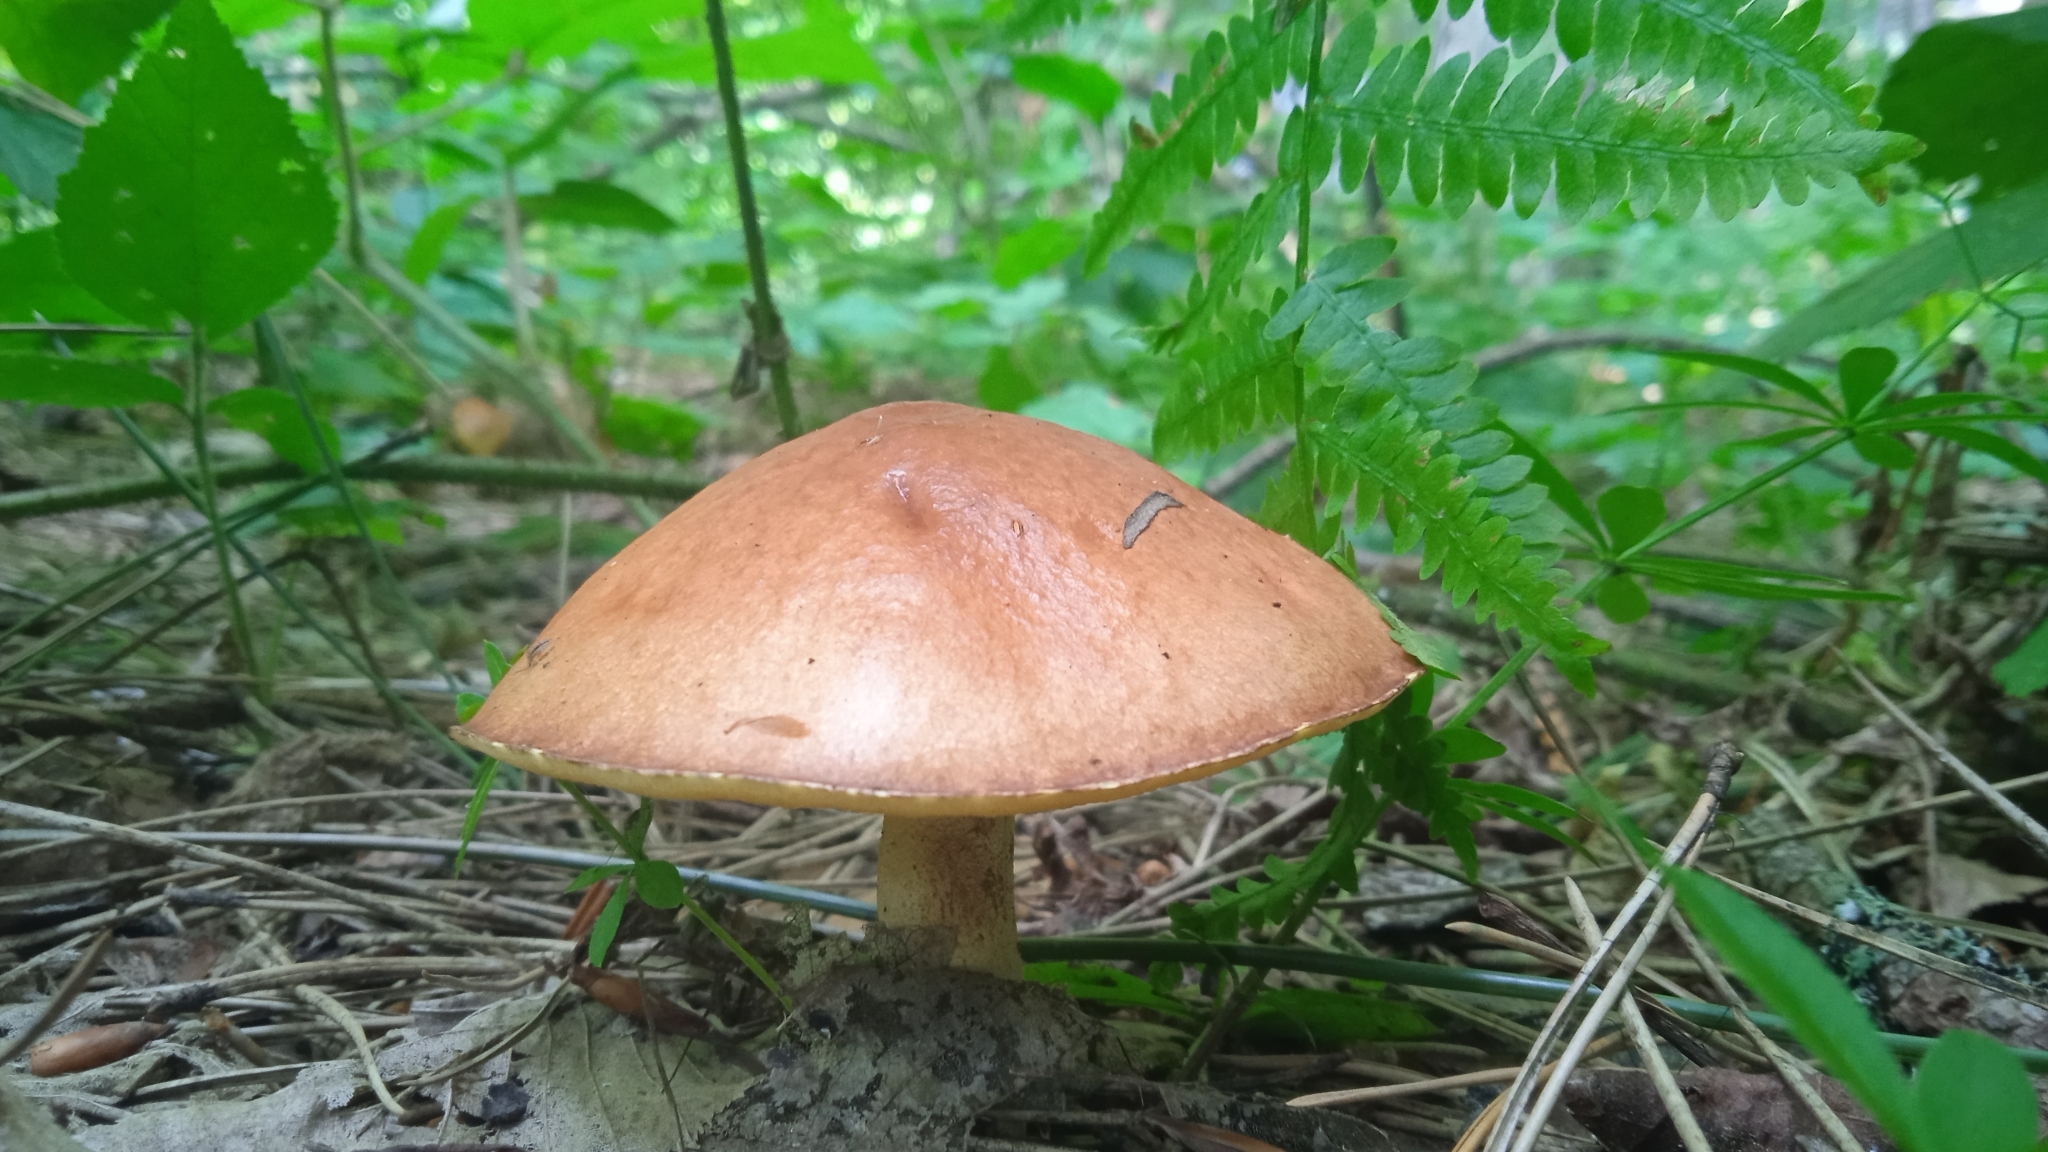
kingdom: Fungi
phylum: Basidiomycota
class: Agaricomycetes
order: Boletales
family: Suillaceae
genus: Suillus
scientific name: Suillus granulatus
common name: Weeping bolete
